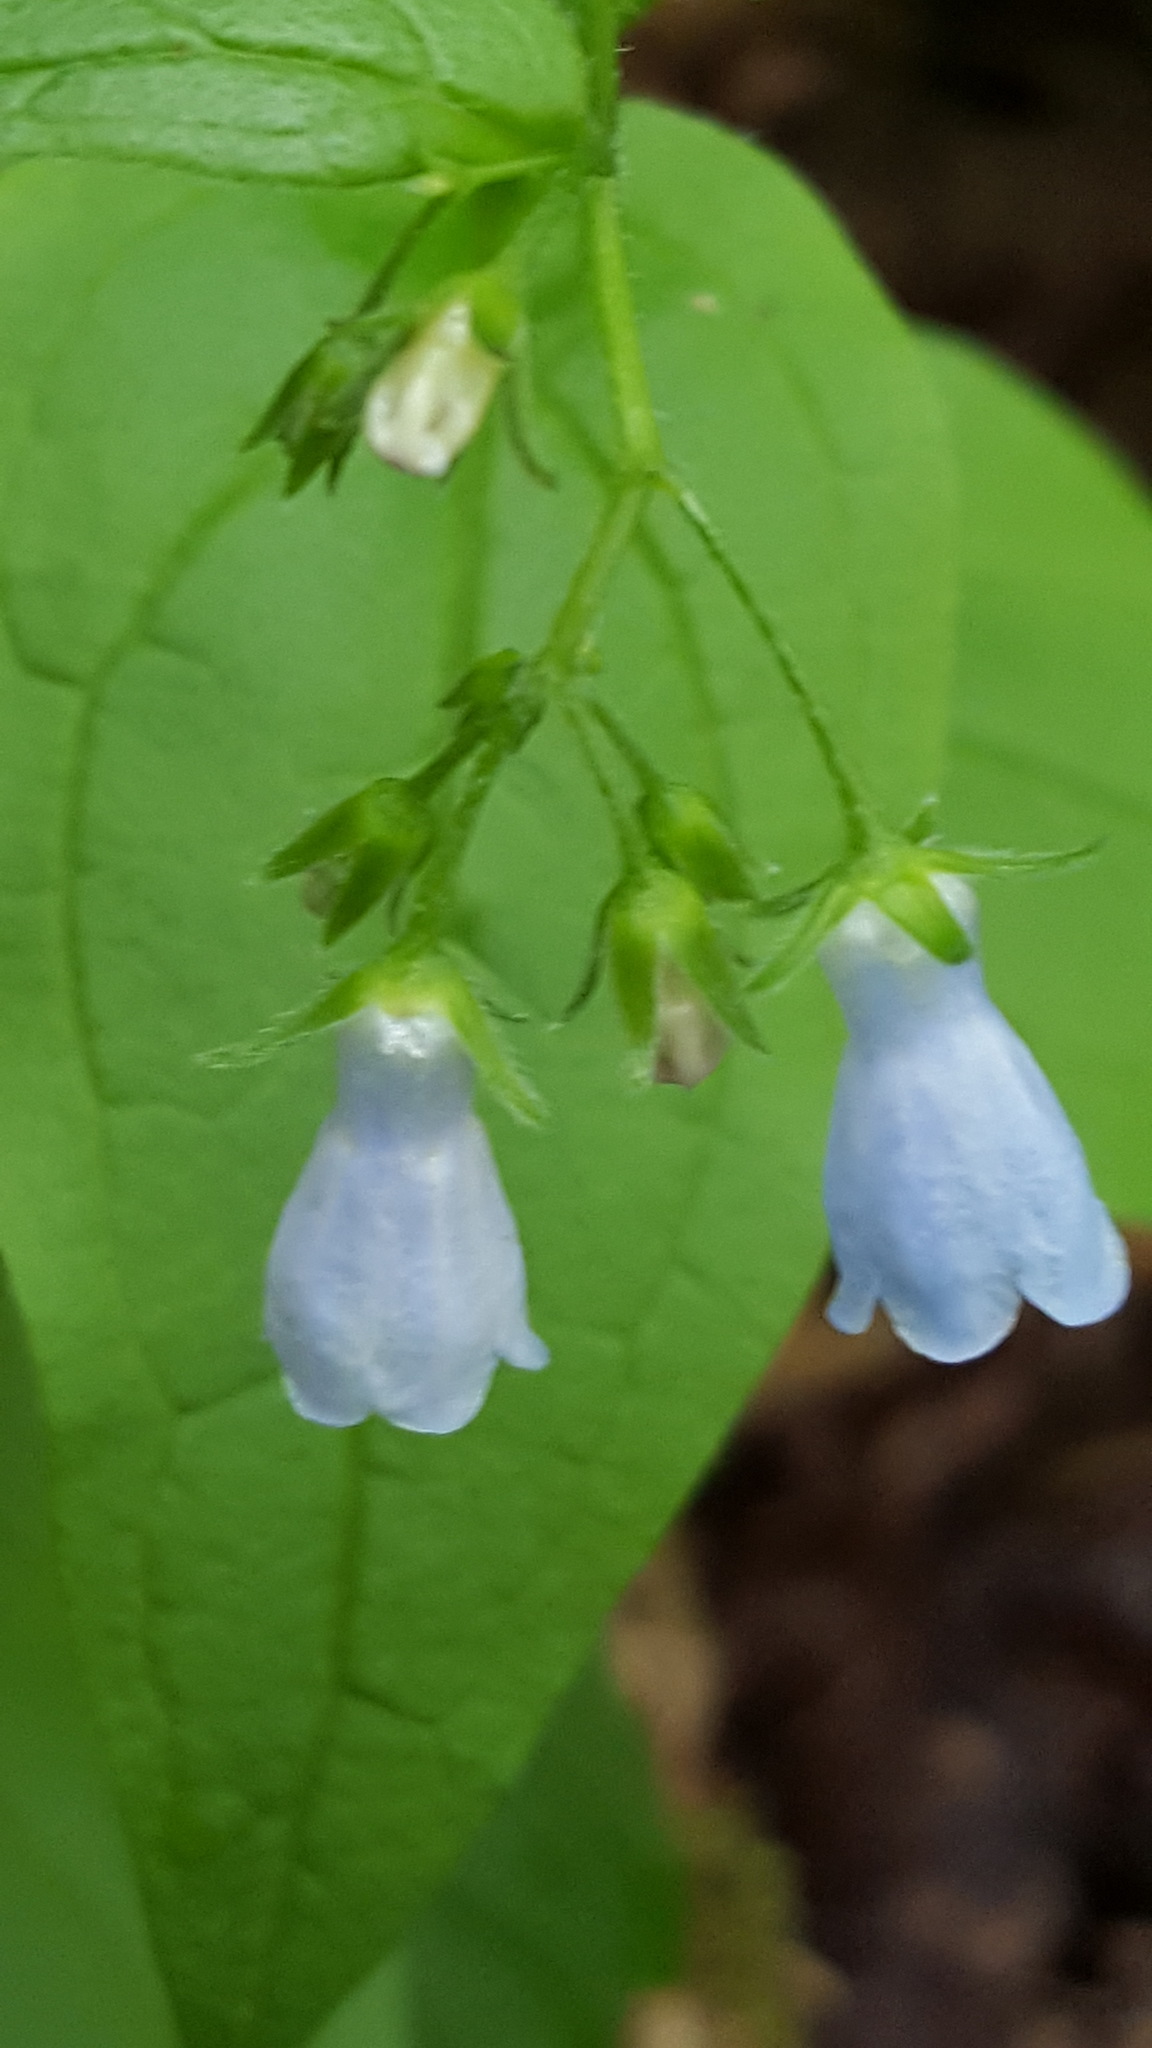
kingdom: Plantae
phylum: Tracheophyta
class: Magnoliopsida
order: Boraginales
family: Boraginaceae
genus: Mertensia
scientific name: Mertensia paniculata
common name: Panicled bluebells
